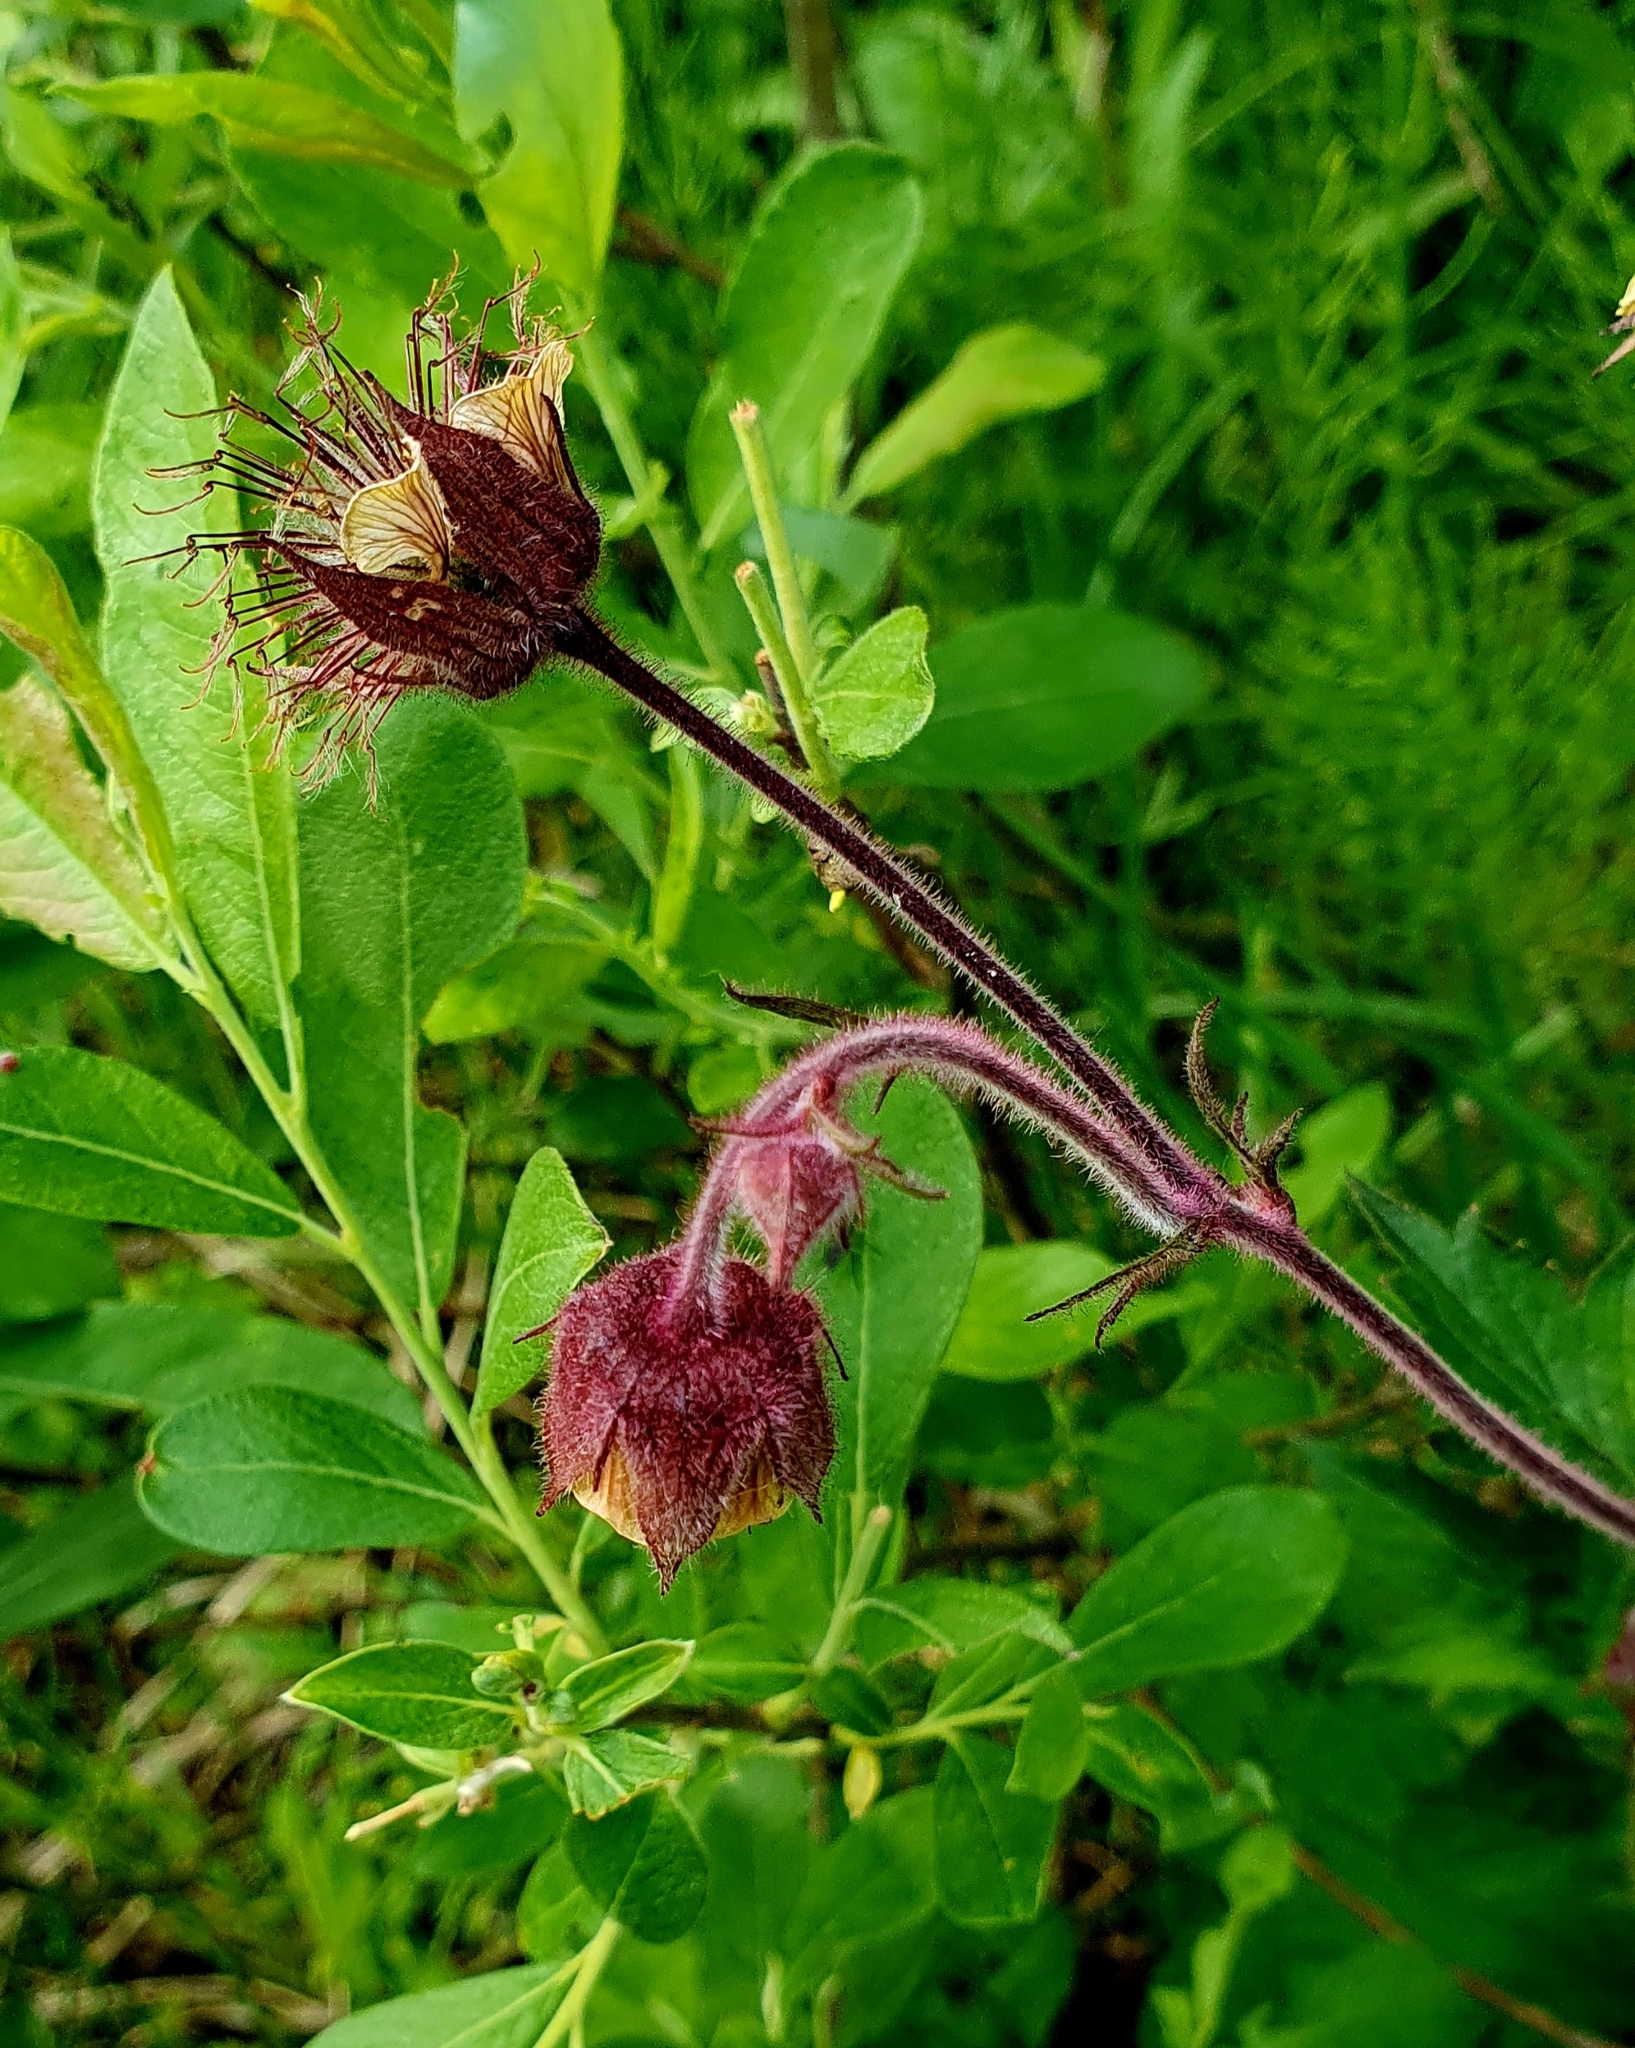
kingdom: Plantae
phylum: Tracheophyta
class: Magnoliopsida
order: Rosales
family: Rosaceae
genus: Geum
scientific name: Geum rivale
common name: Water avens
